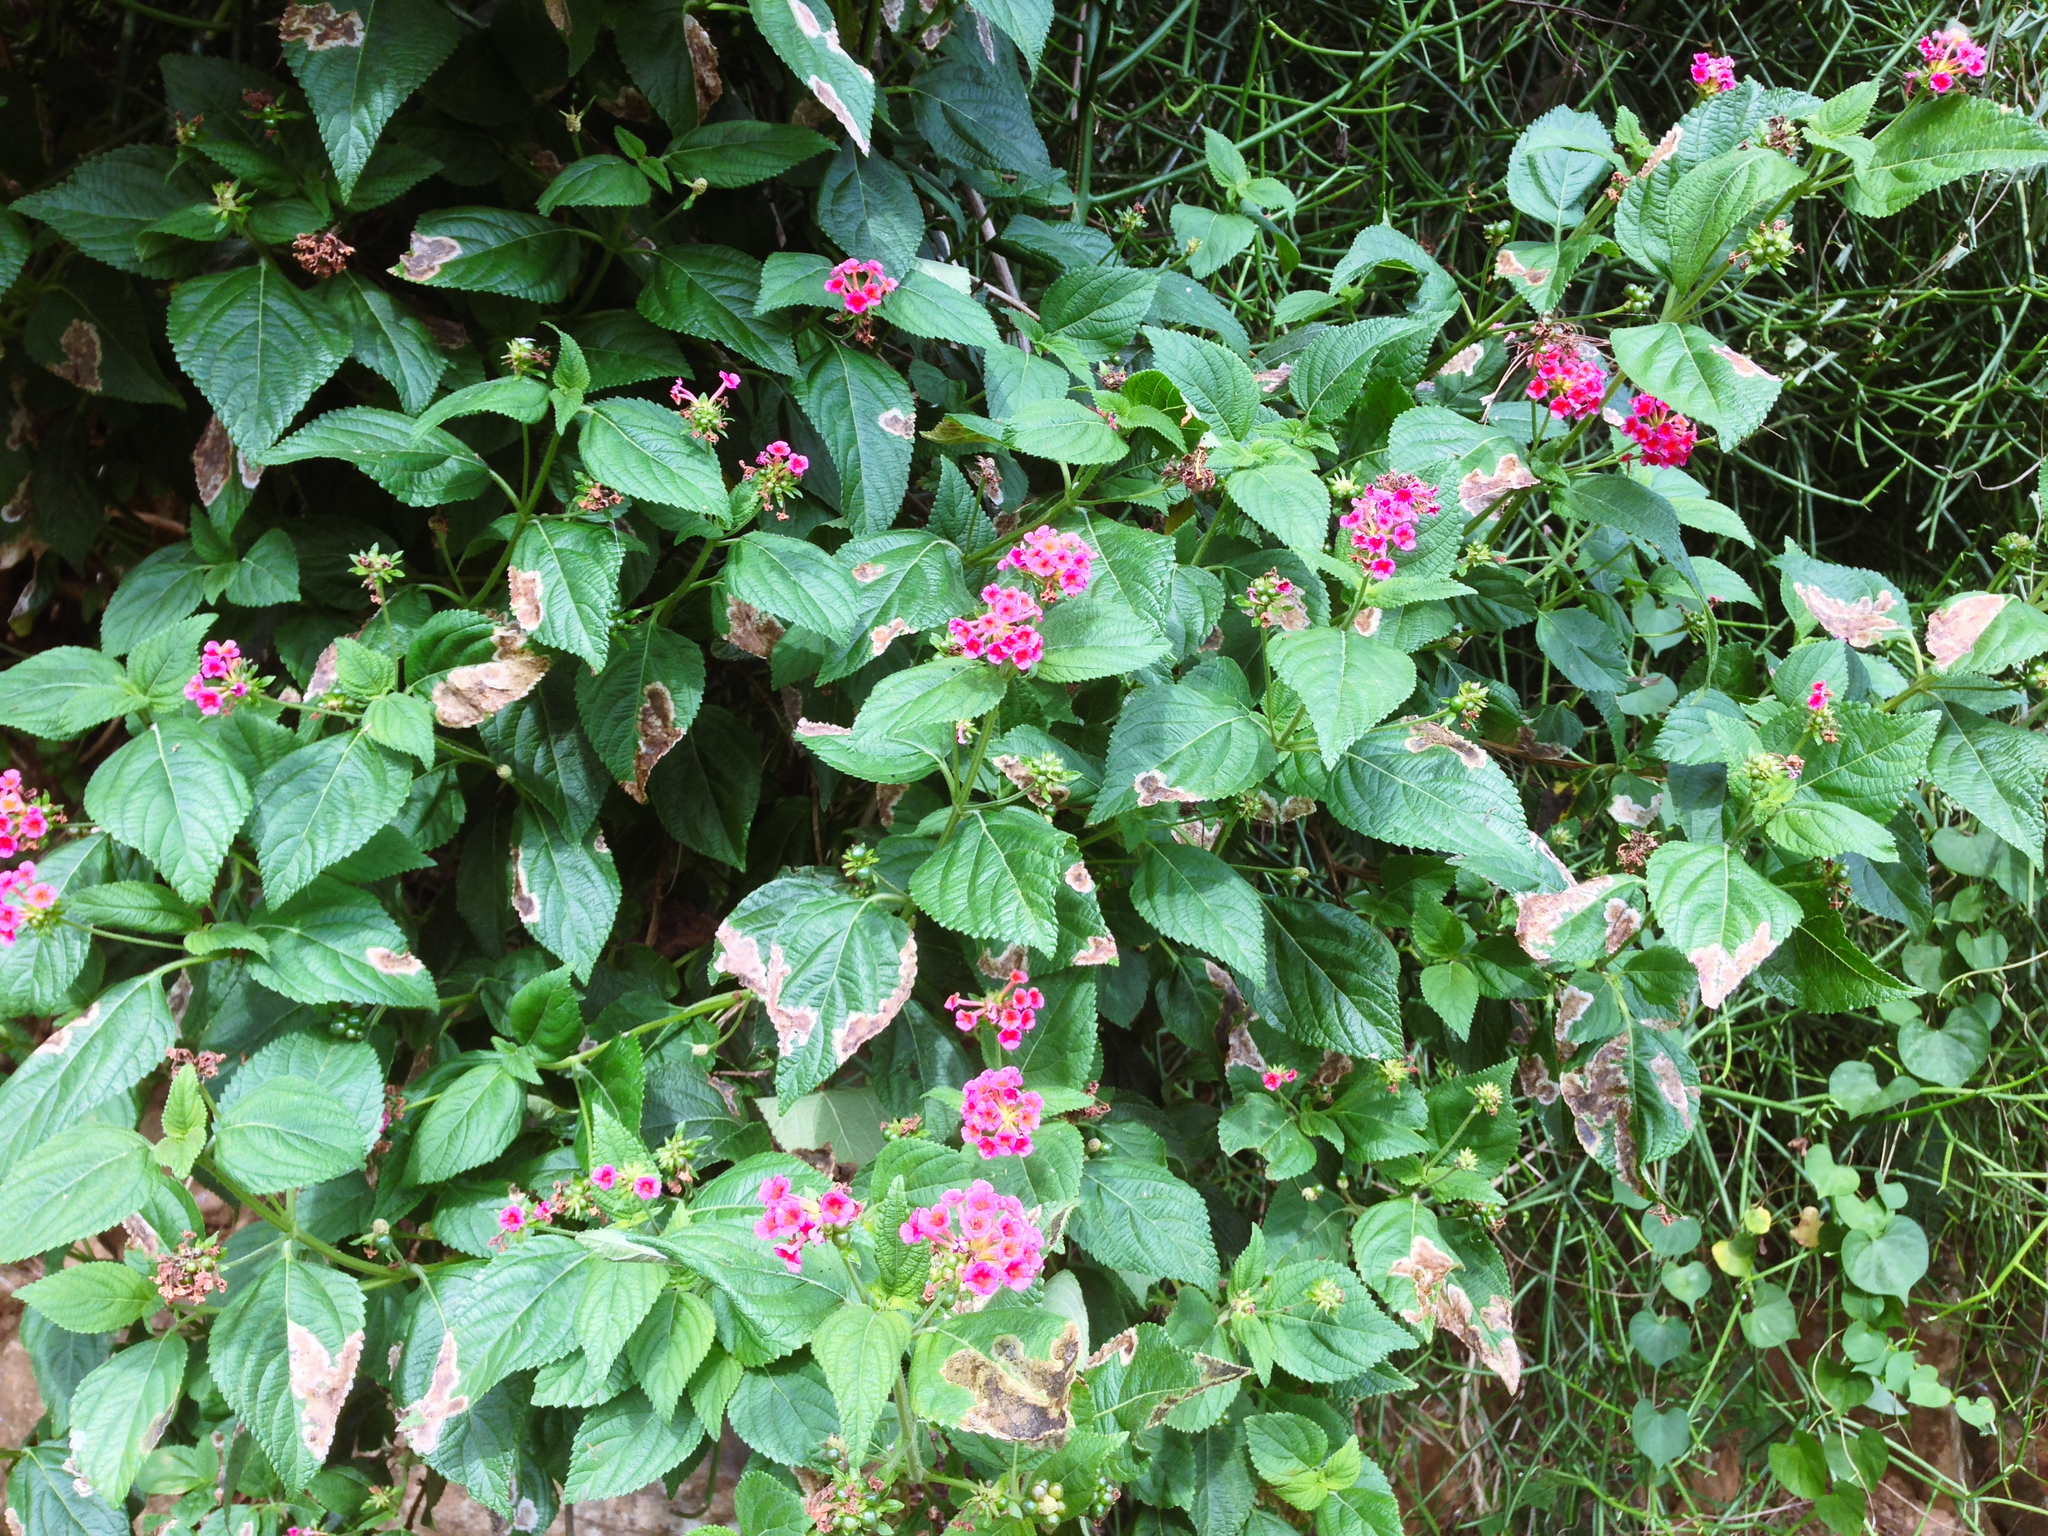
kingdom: Plantae
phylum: Tracheophyta
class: Magnoliopsida
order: Lamiales
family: Verbenaceae
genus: Lantana
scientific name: Lantana camara
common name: Lantana
